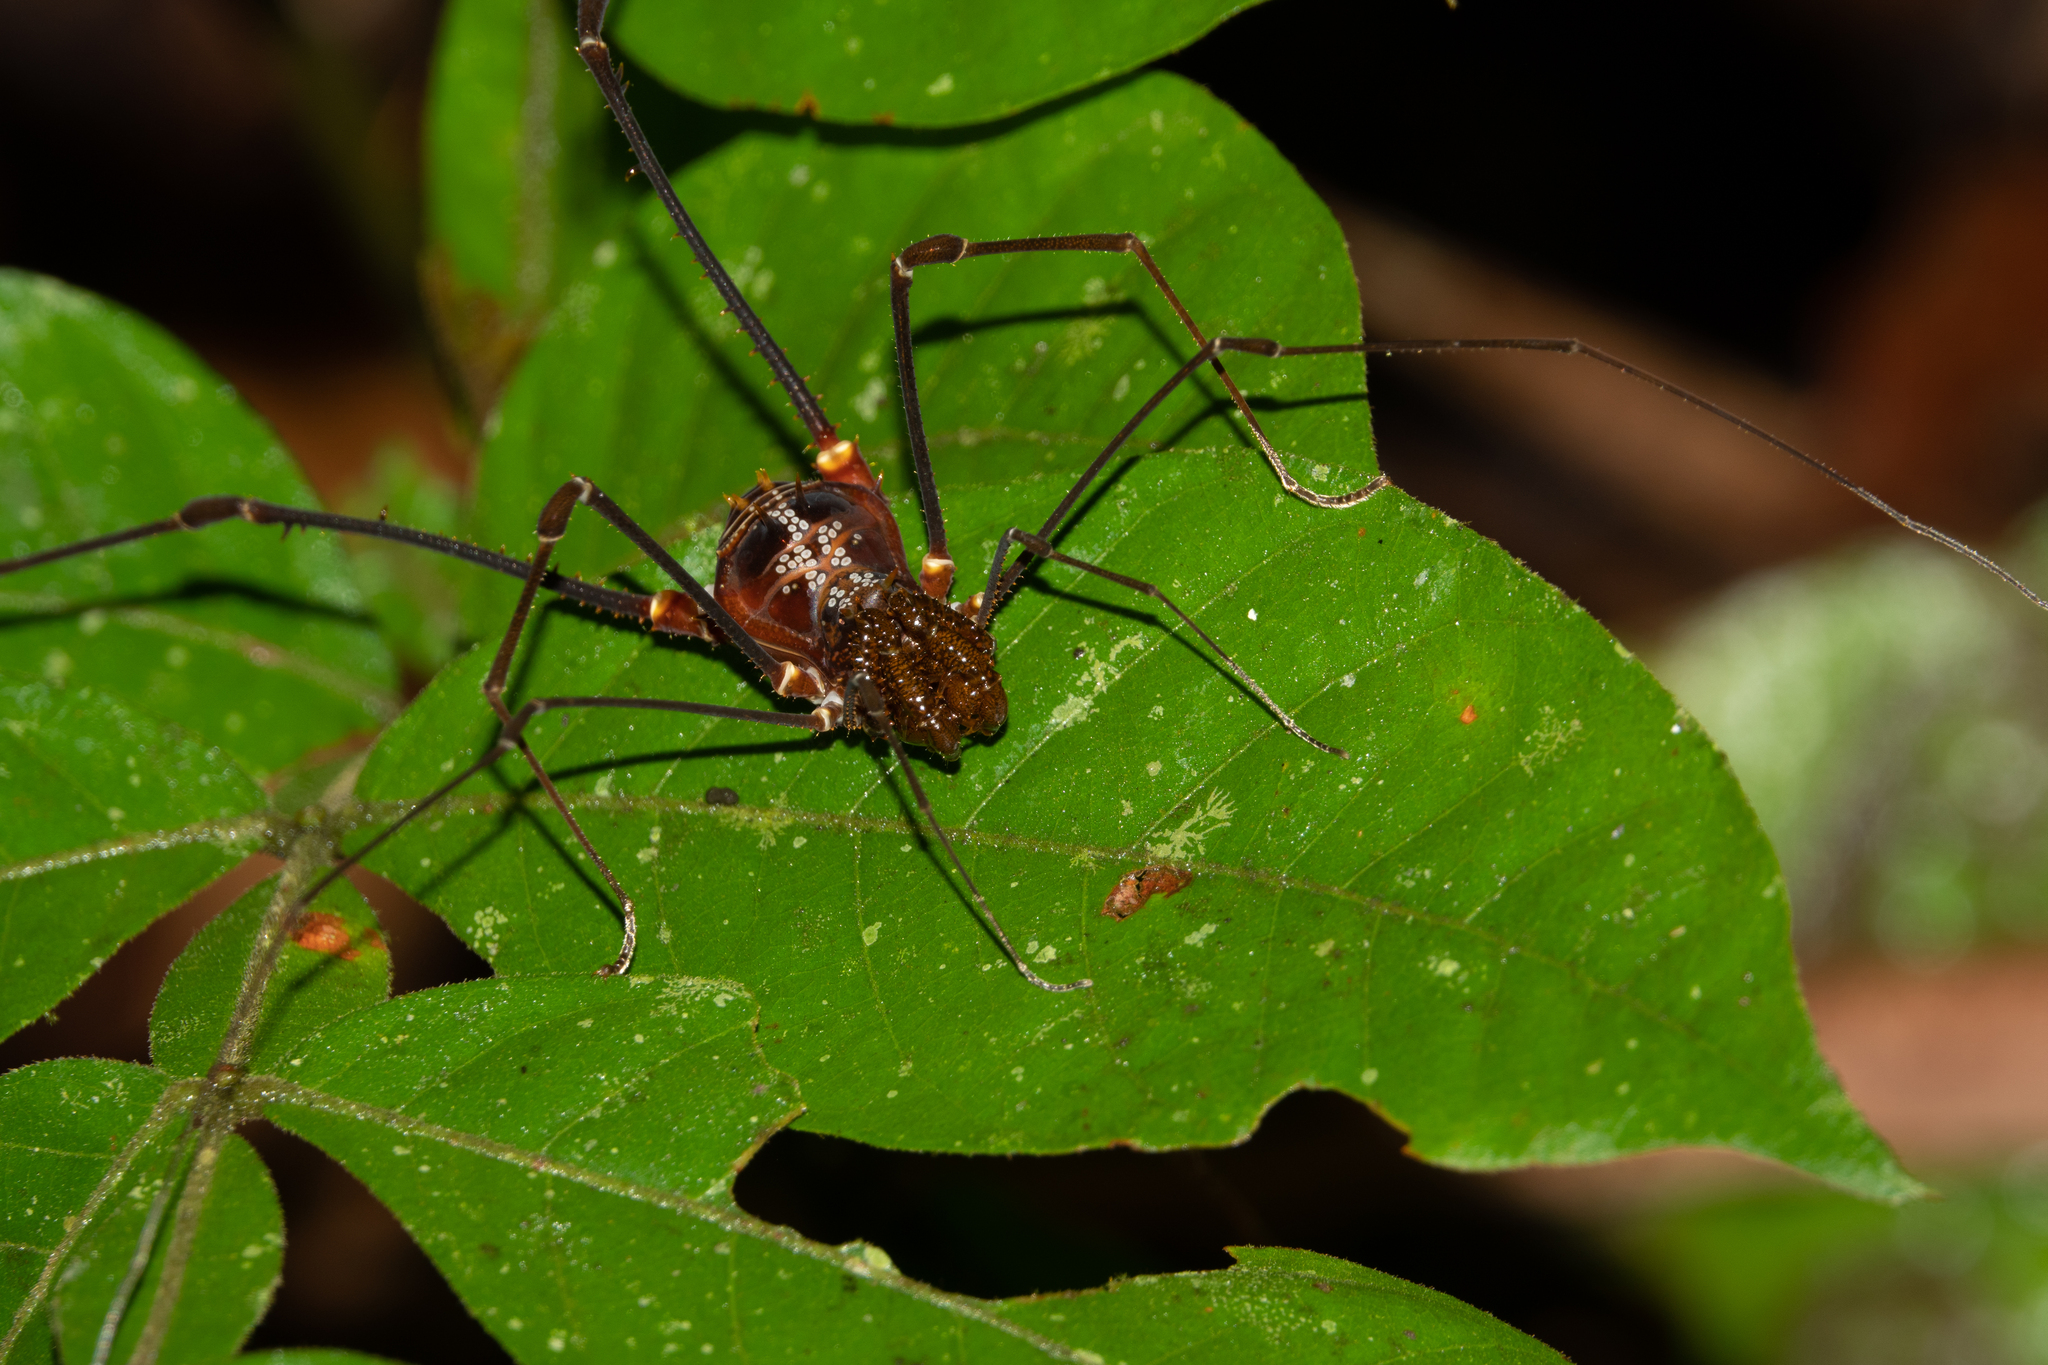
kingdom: Animalia
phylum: Arthropoda
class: Arachnida
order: Opiliones
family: Cranaidae
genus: Phareicranaus
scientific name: Phareicranaus hermosa
